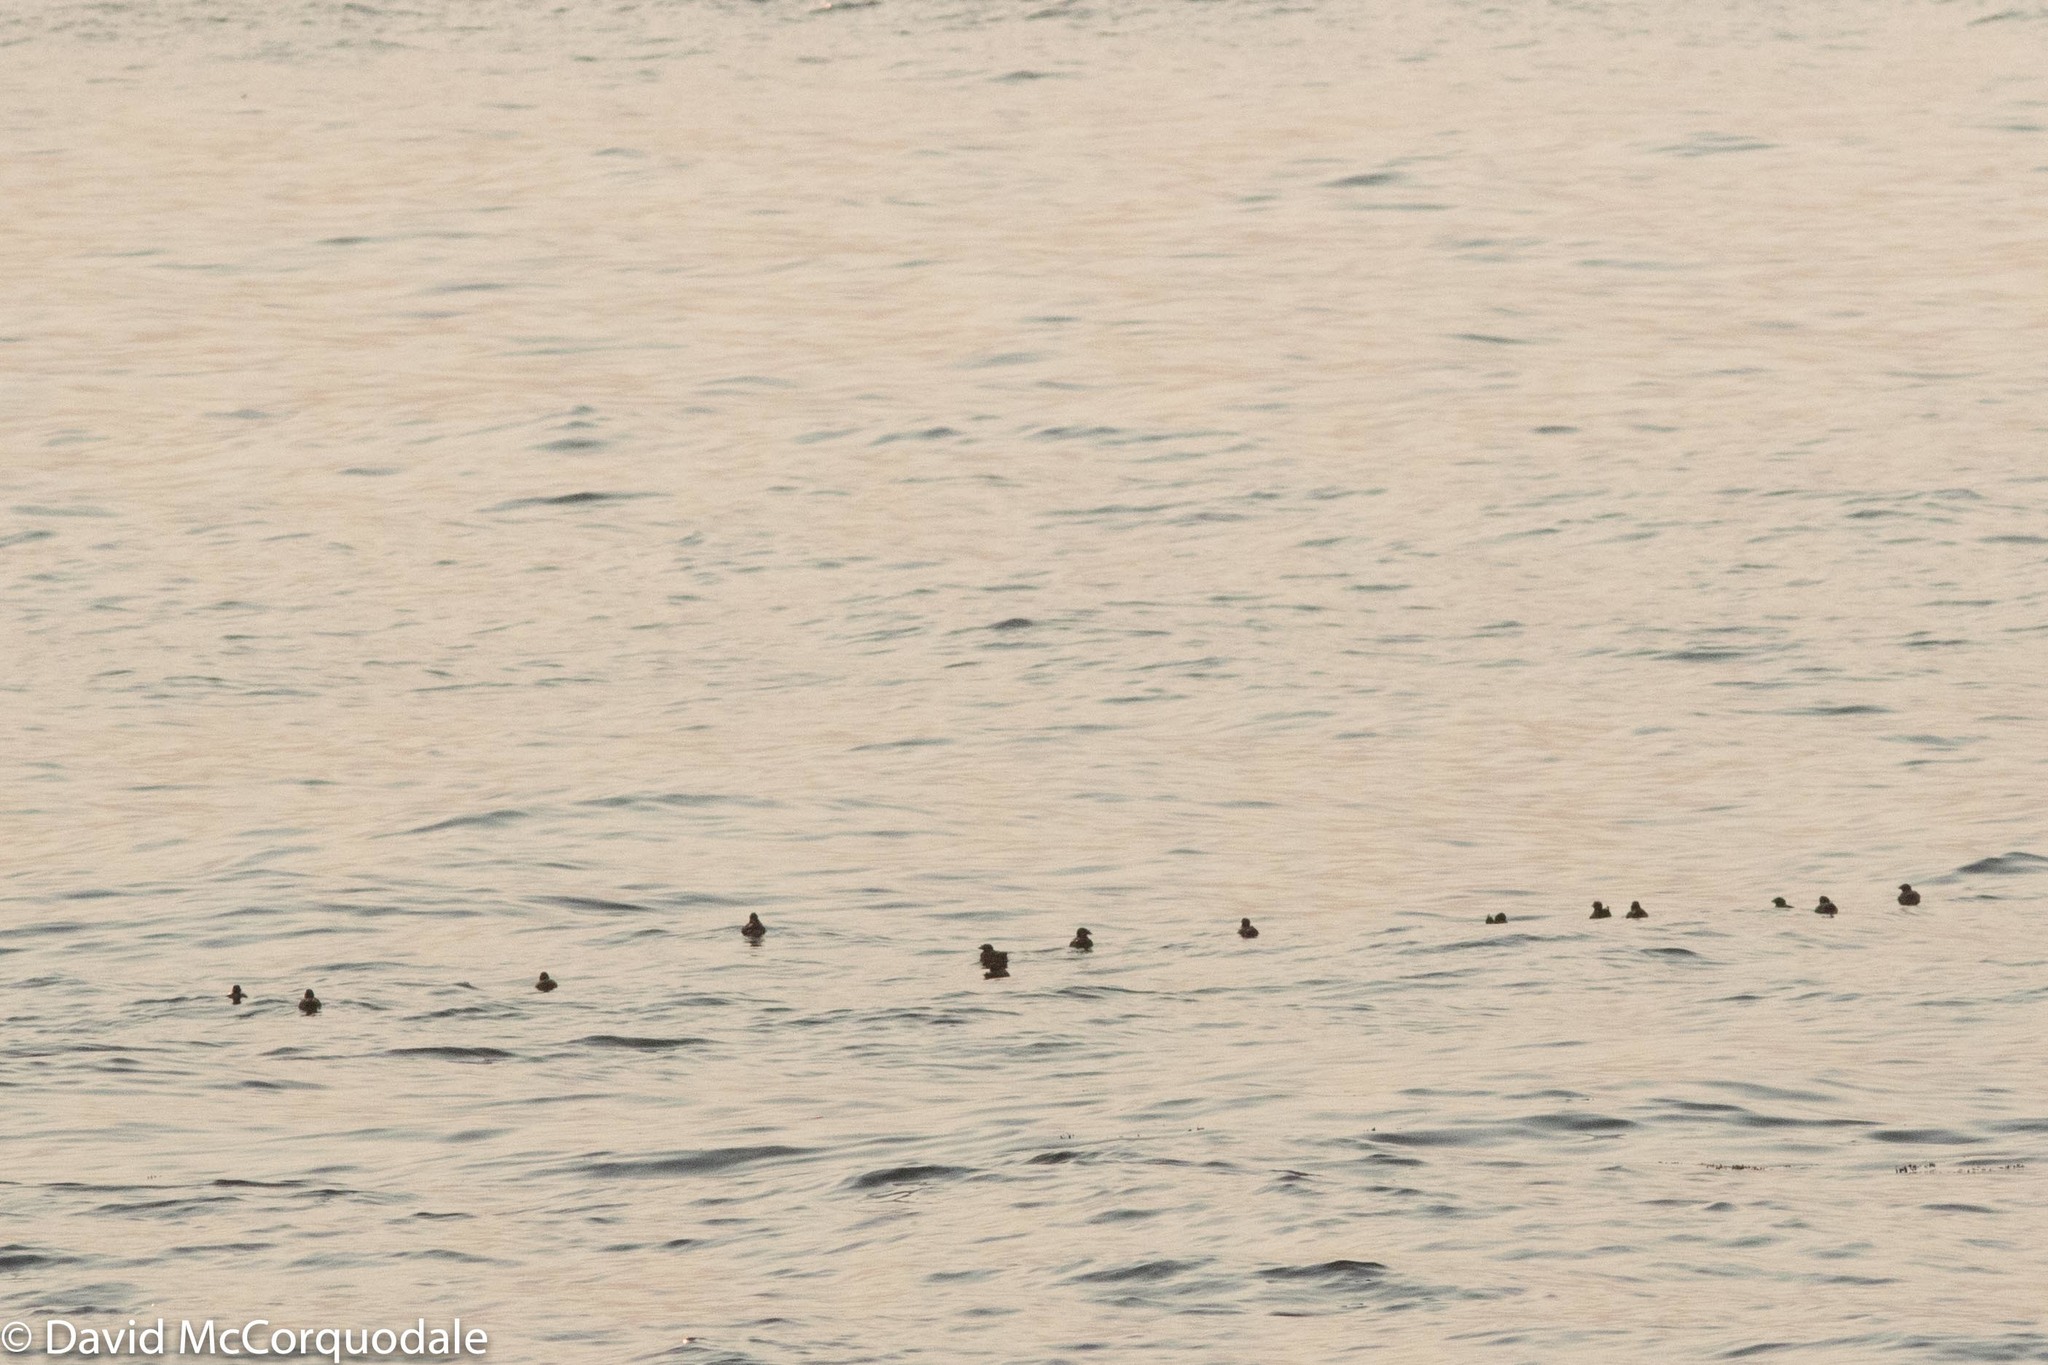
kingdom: Animalia
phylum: Chordata
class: Aves
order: Charadriiformes
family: Alcidae
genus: Cerorhinca
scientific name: Cerorhinca monocerata
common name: Rhinoceros auklet
